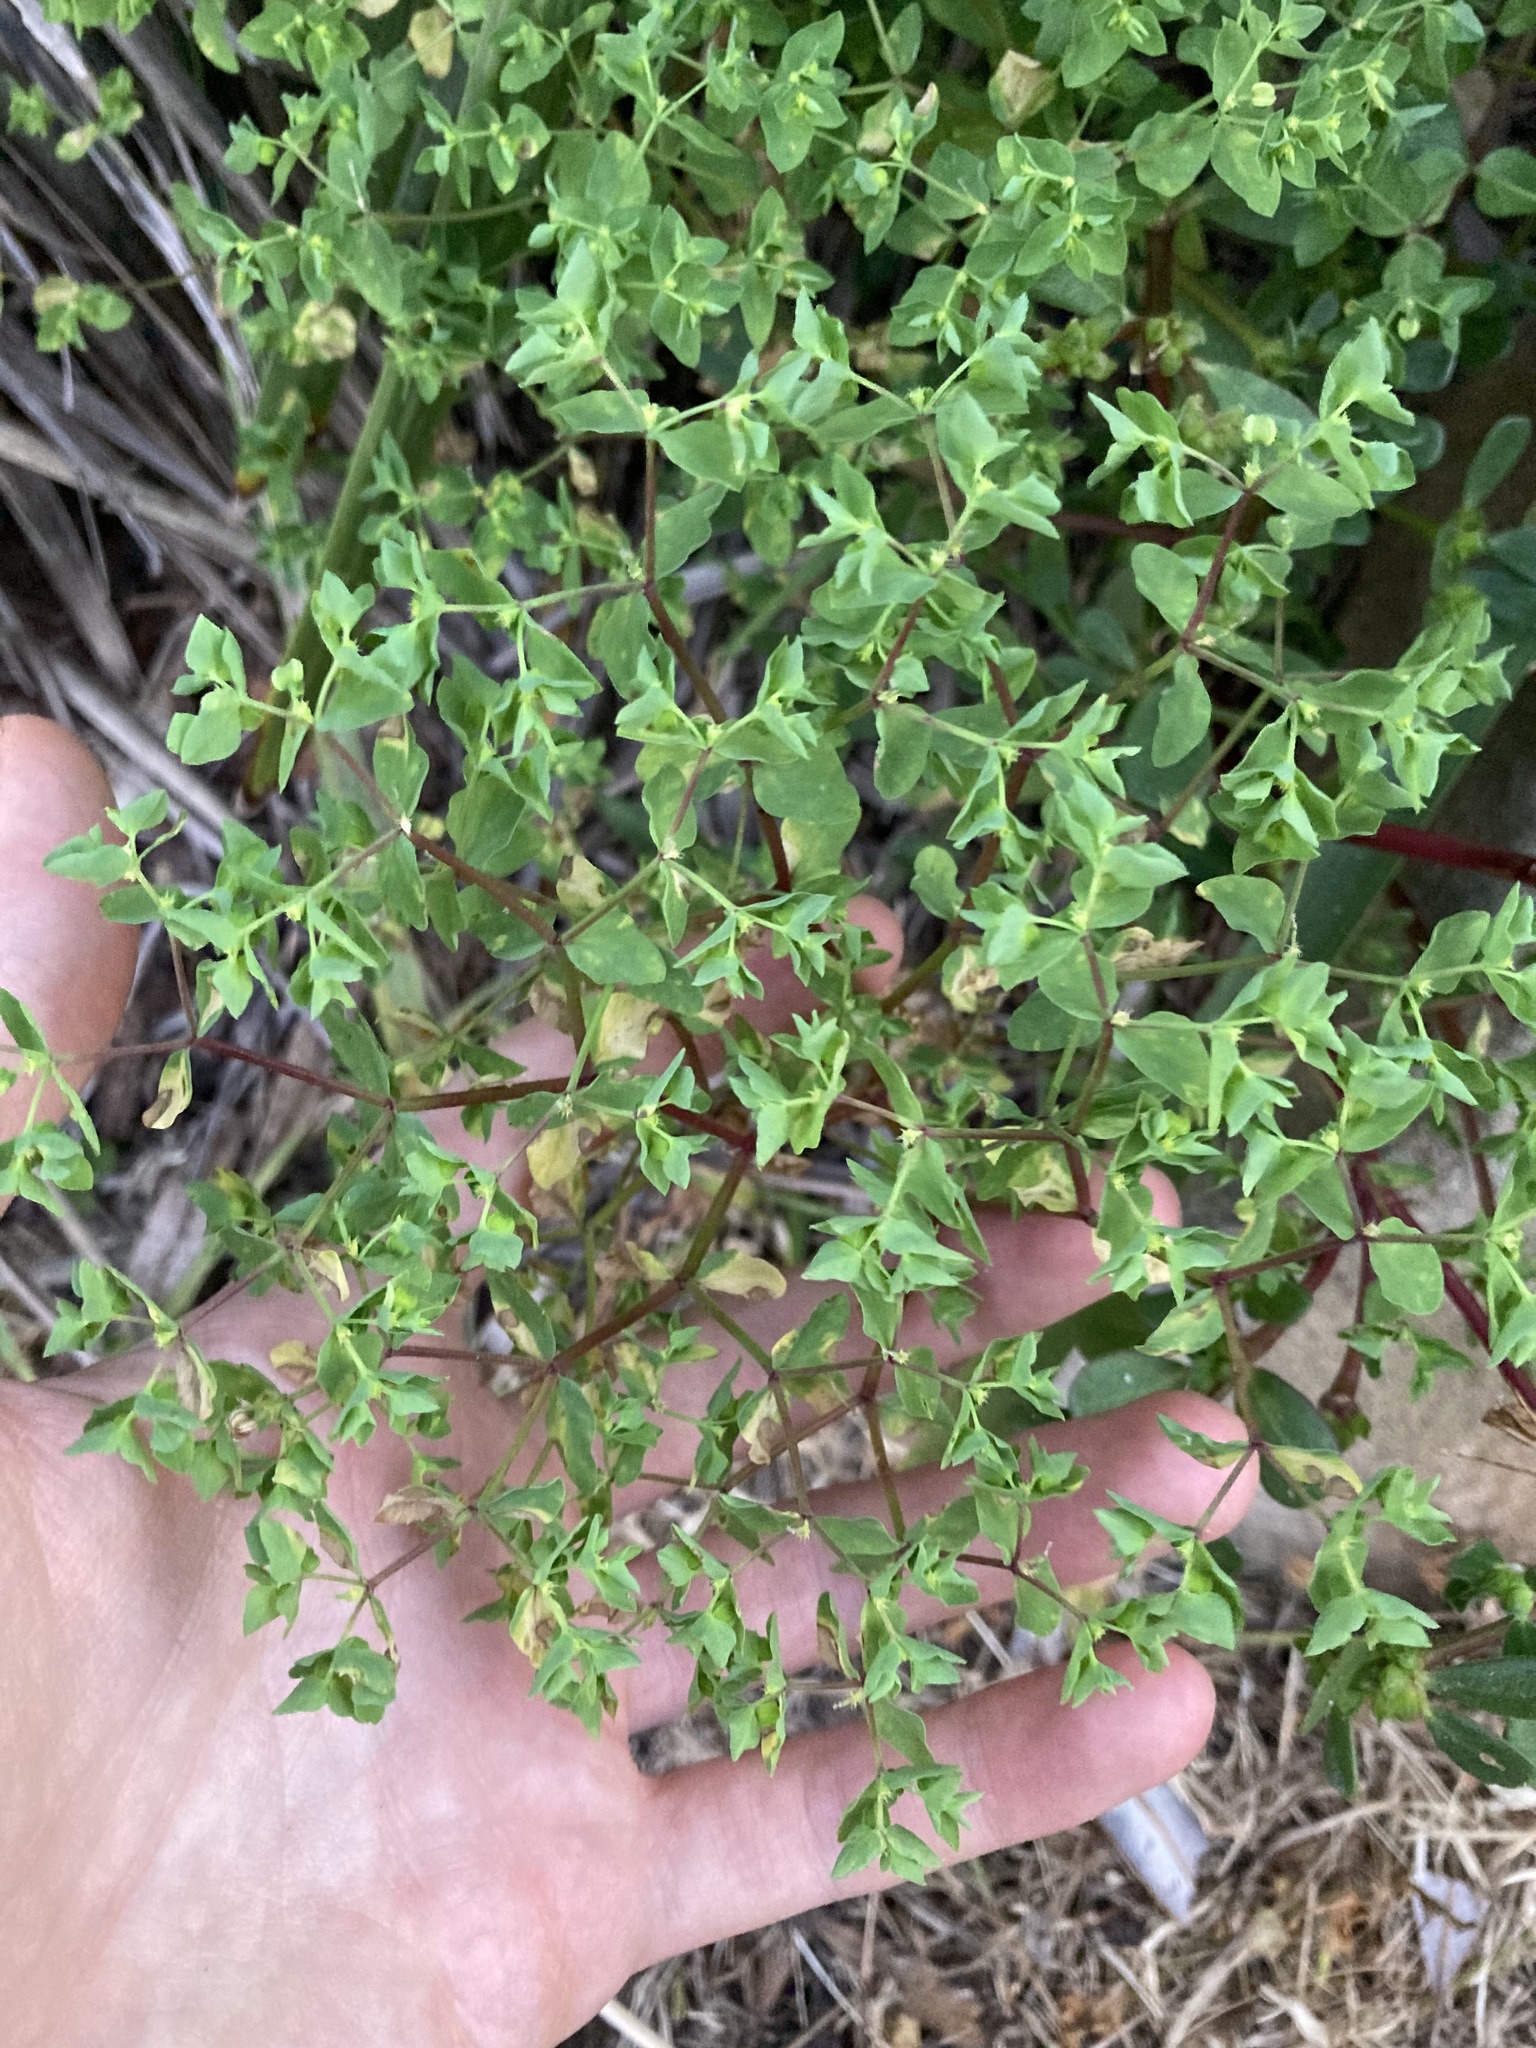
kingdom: Plantae
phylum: Tracheophyta
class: Magnoliopsida
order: Malpighiales
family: Euphorbiaceae
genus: Euphorbia
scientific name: Euphorbia peplus
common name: Petty spurge
